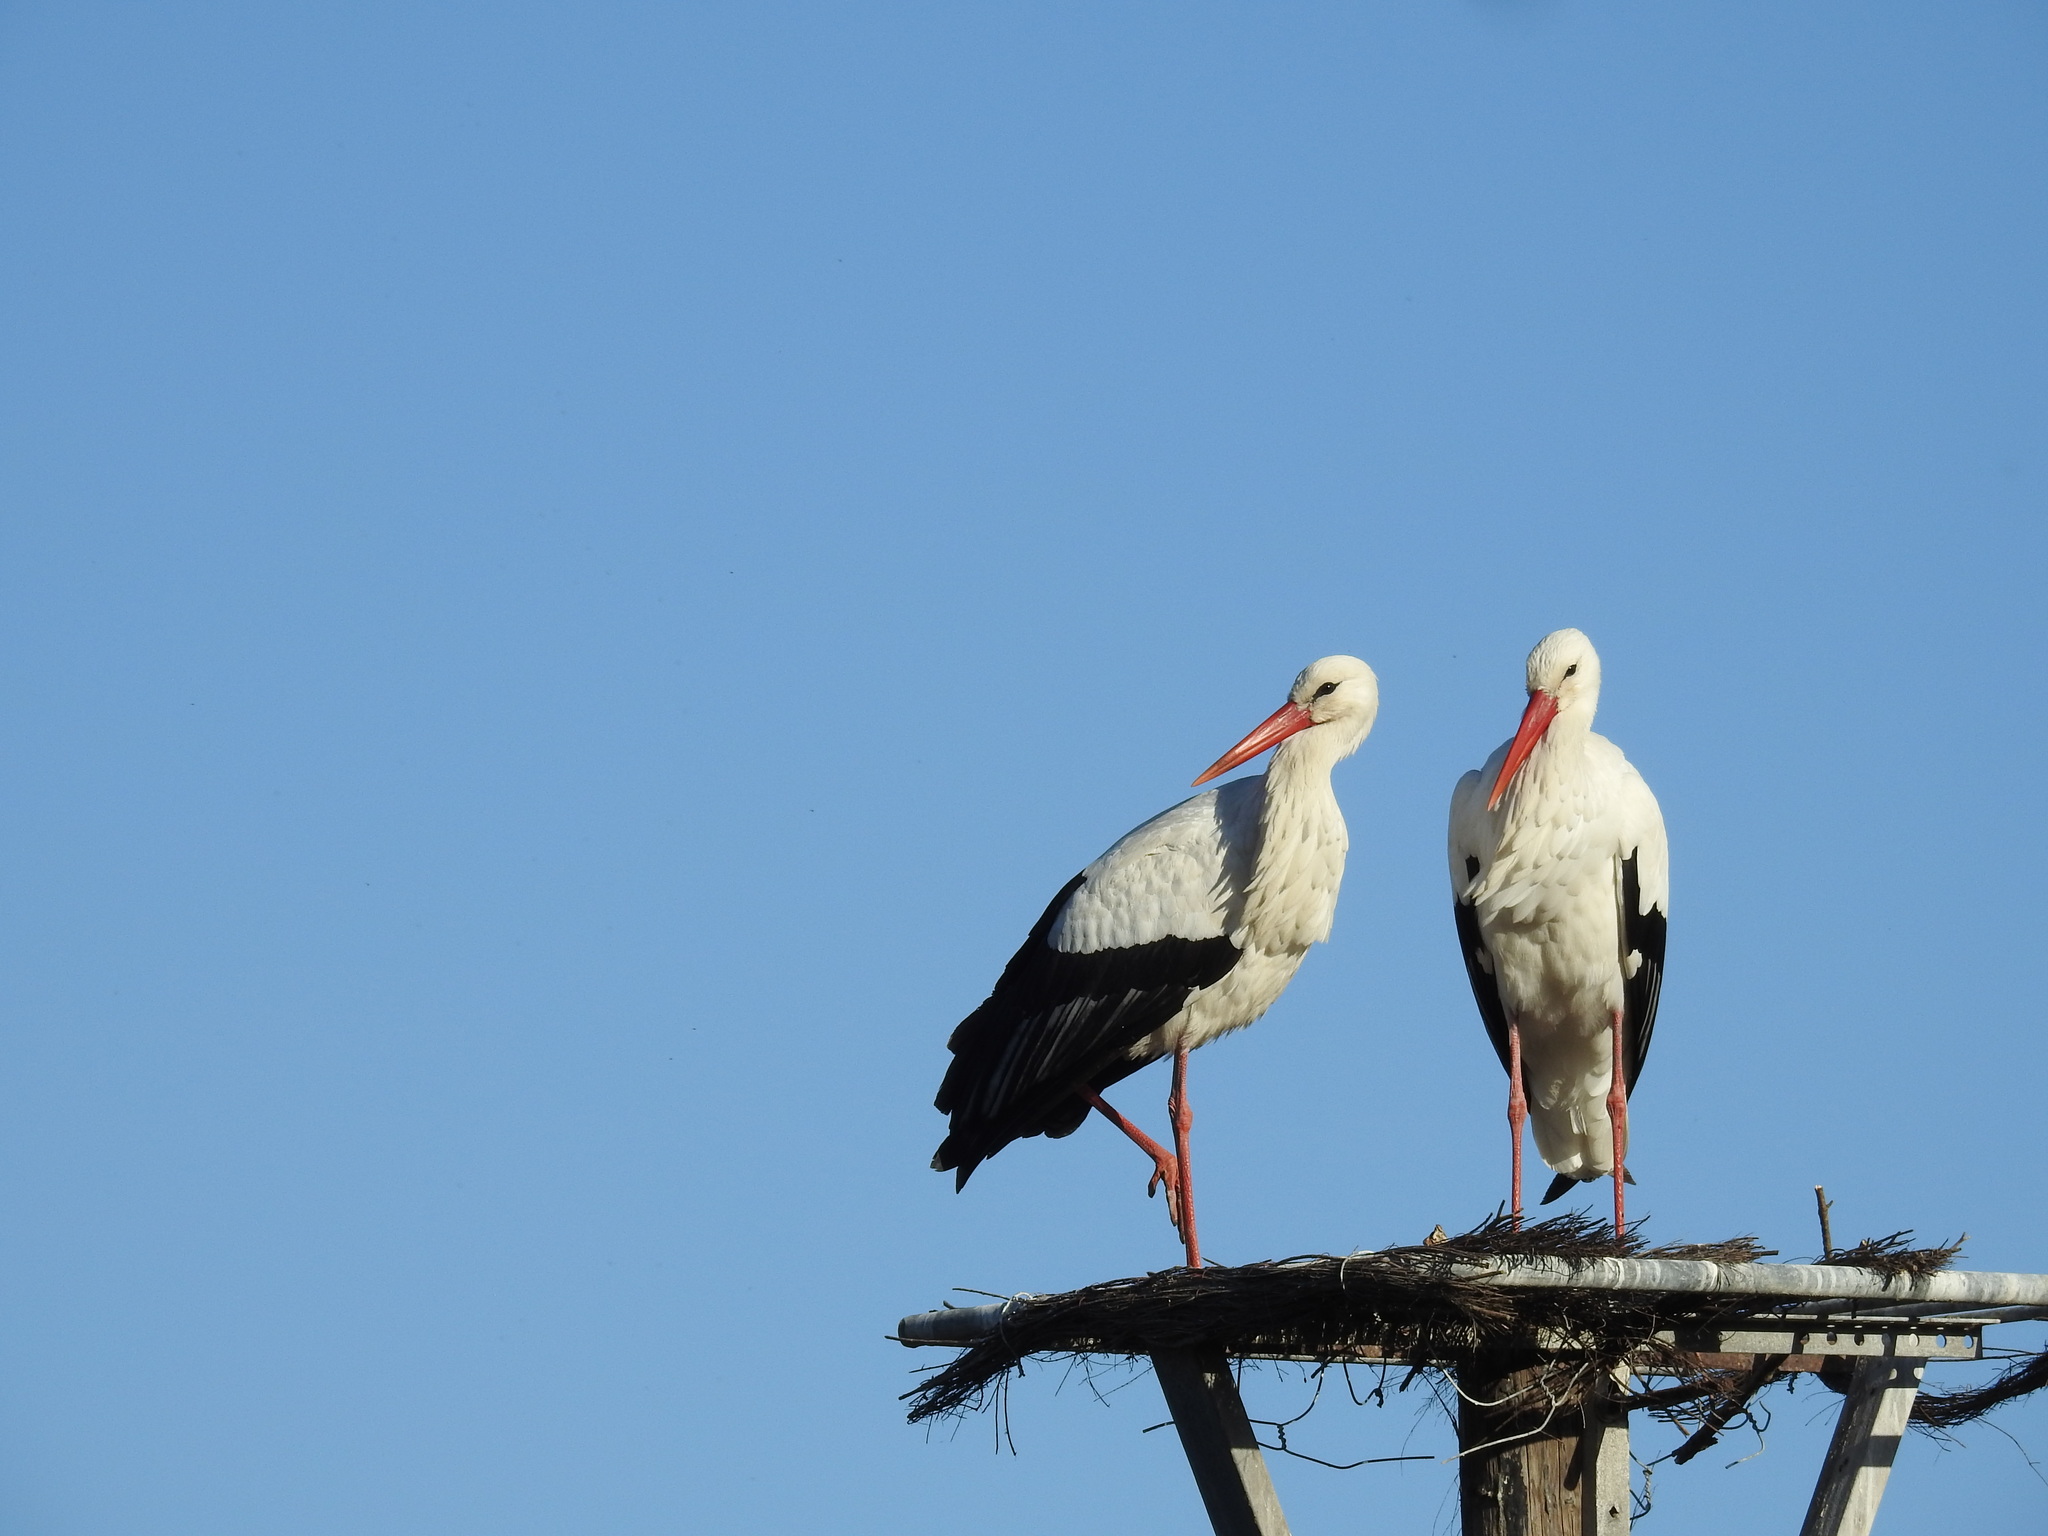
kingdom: Animalia
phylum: Chordata
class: Aves
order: Ciconiiformes
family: Ciconiidae
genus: Ciconia
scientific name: Ciconia ciconia
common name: White stork
